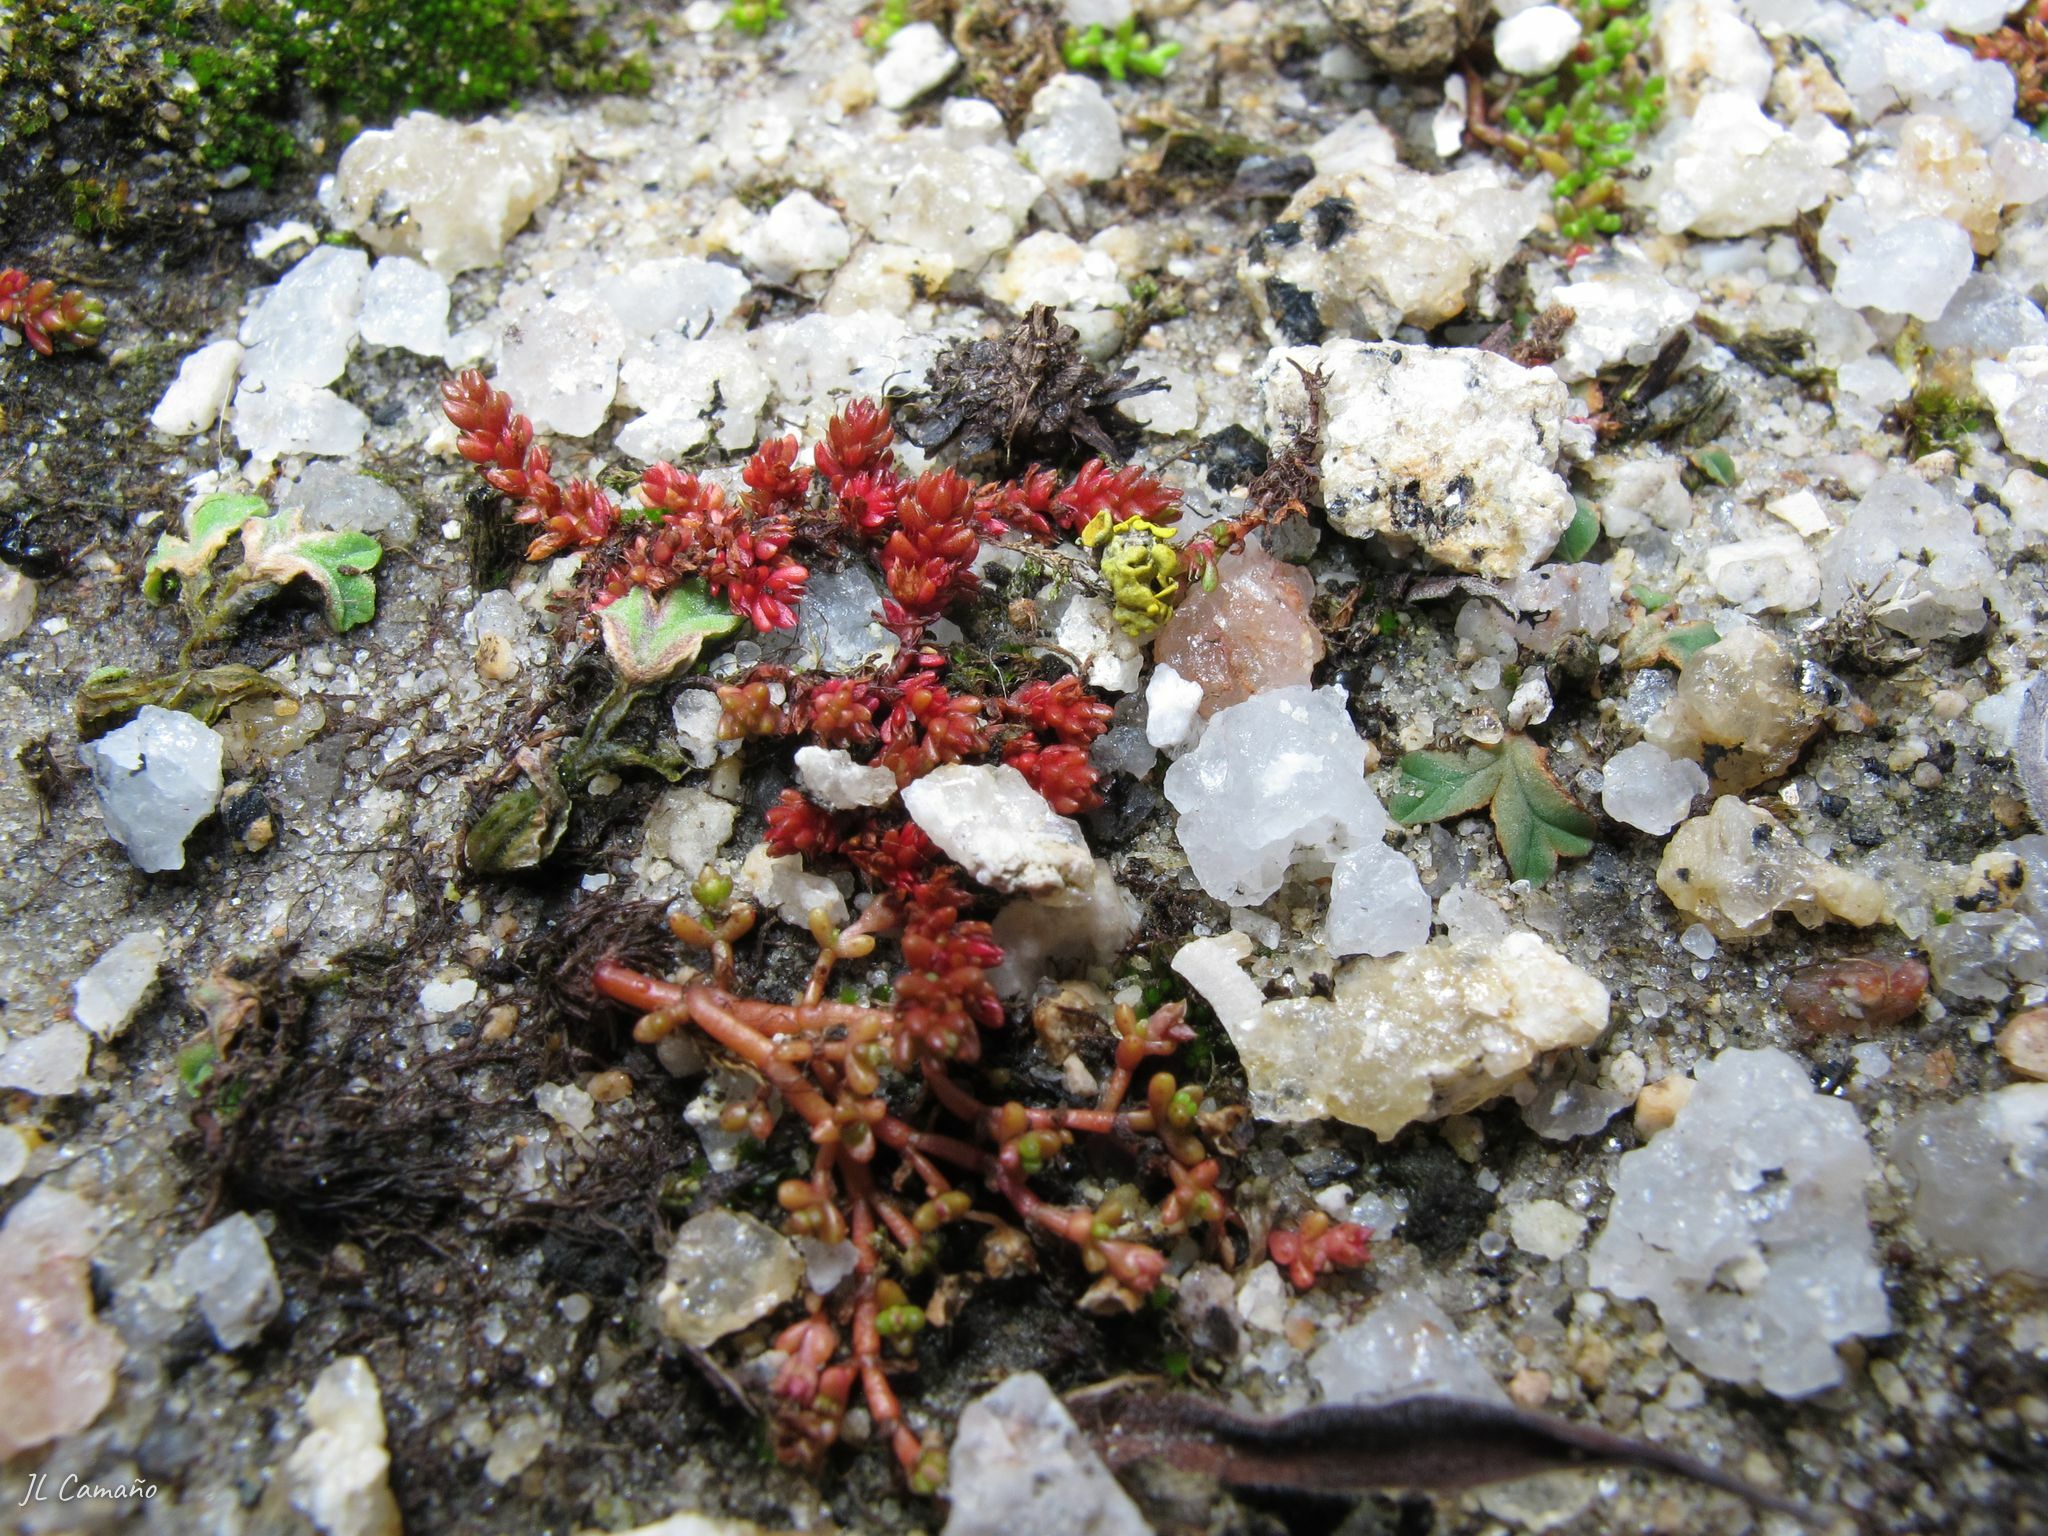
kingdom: Plantae
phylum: Tracheophyta
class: Magnoliopsida
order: Saxifragales
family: Crassulaceae
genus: Crassula
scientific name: Crassula tillaea
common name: Mossy stonecrop
